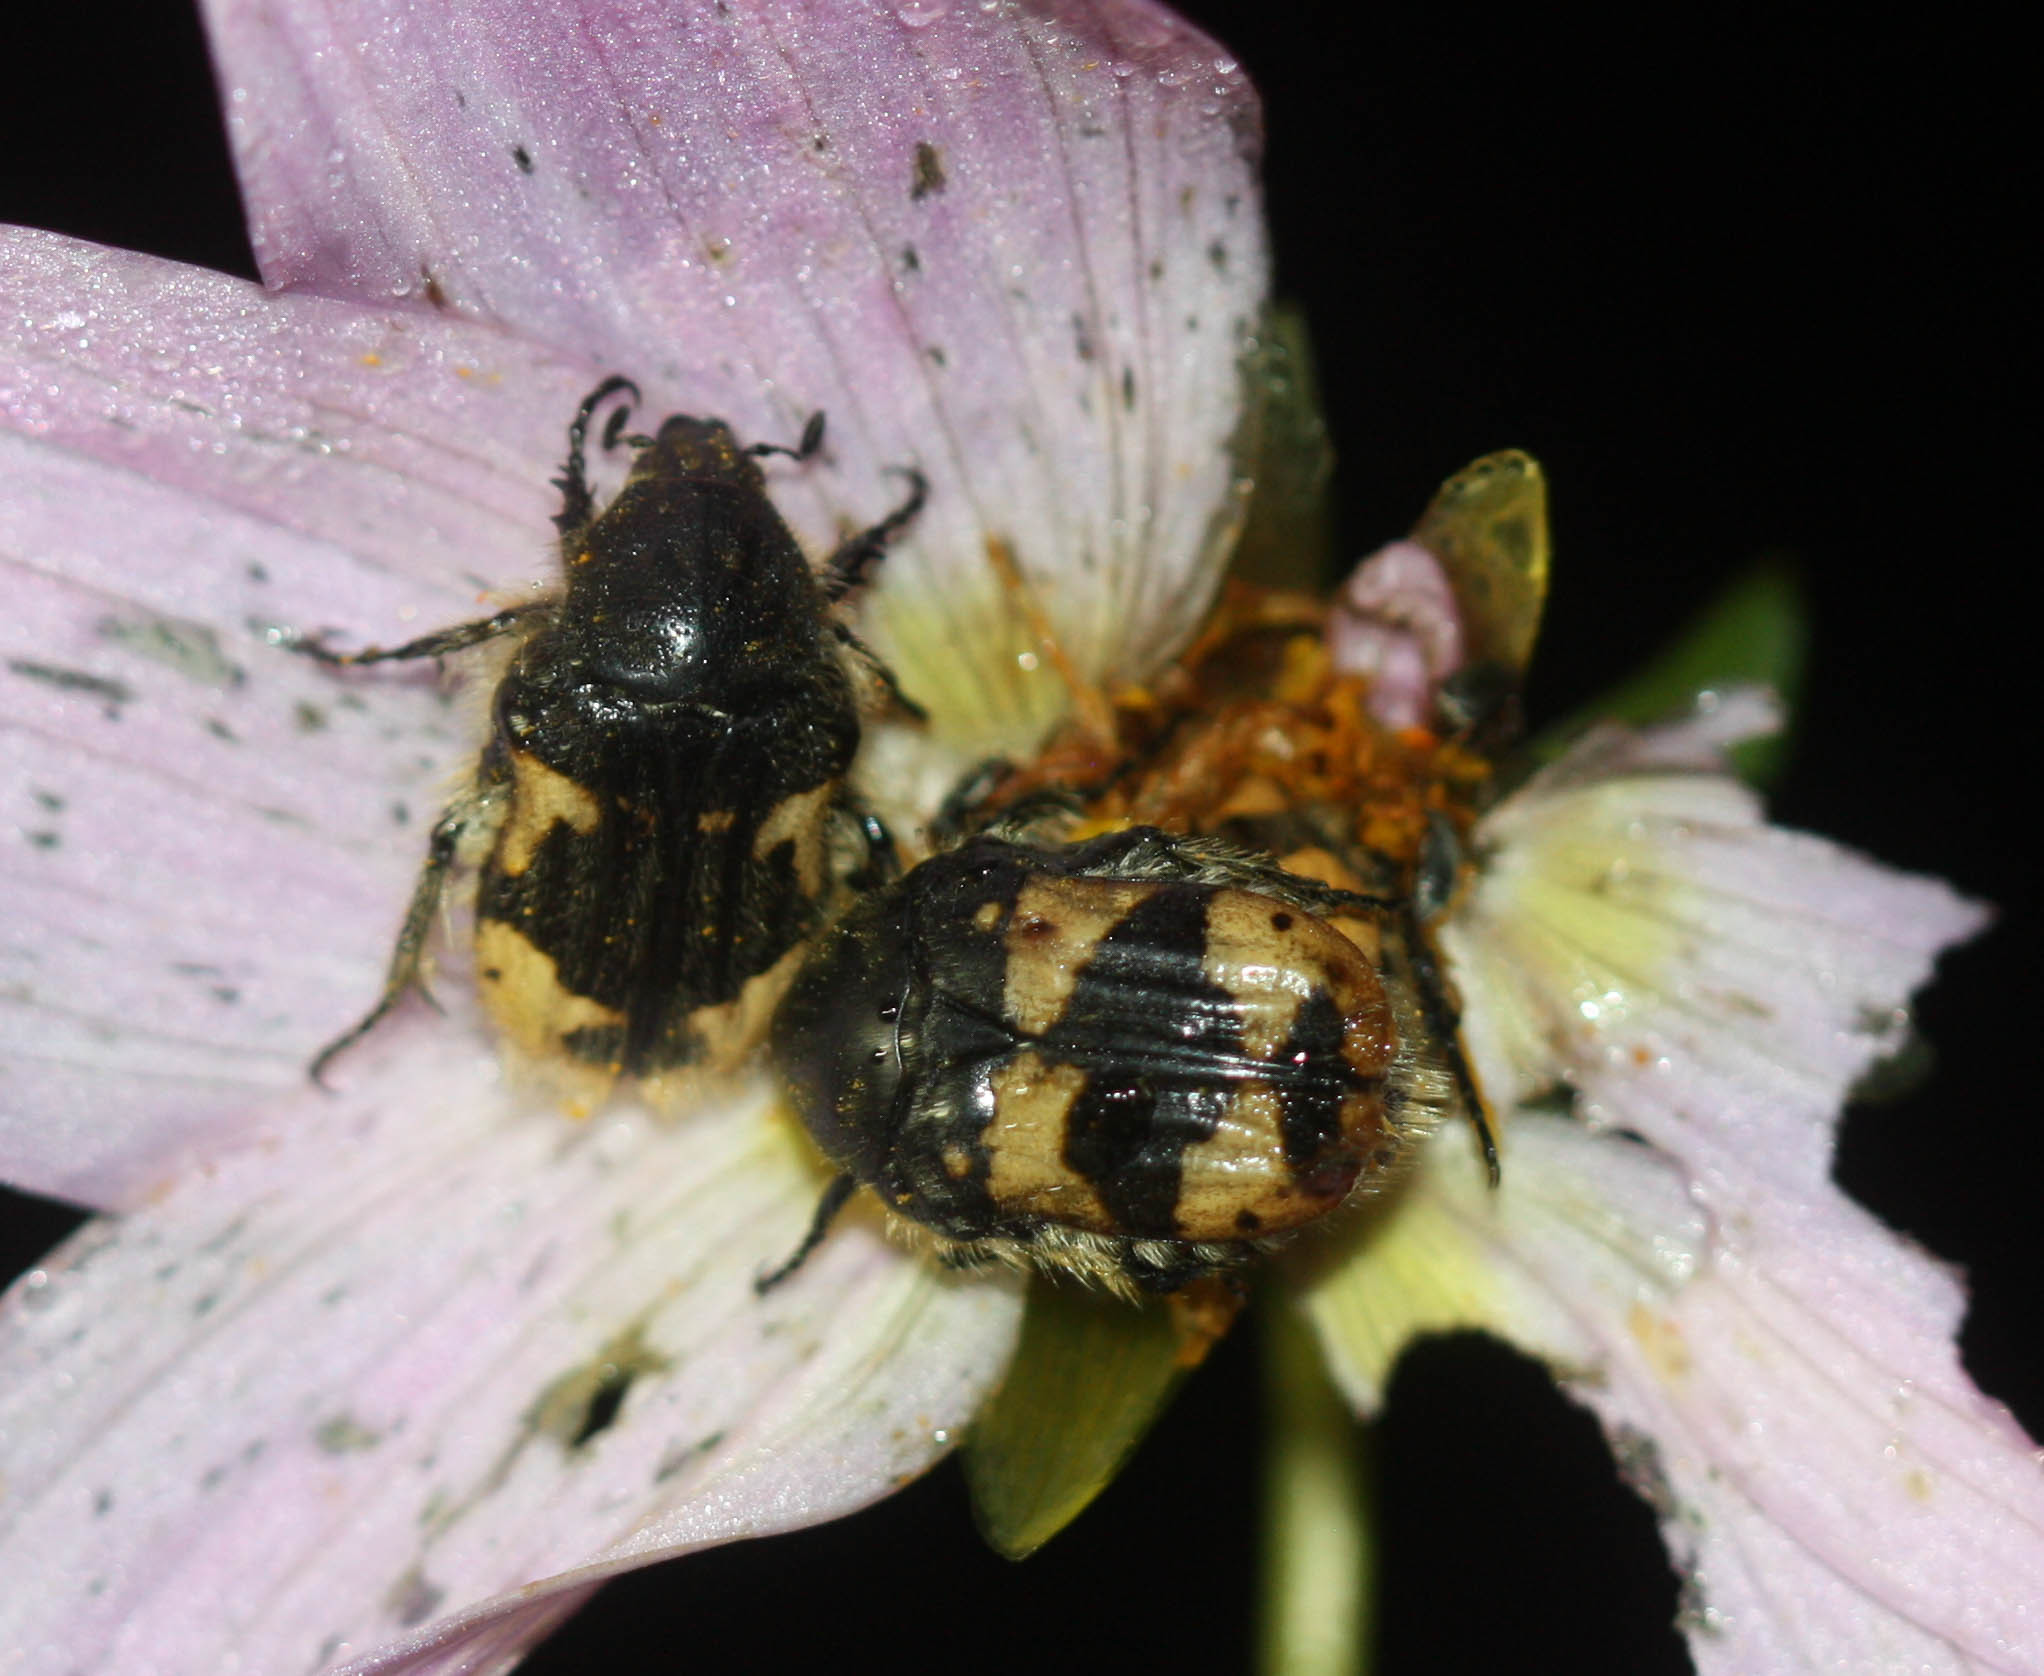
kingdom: Animalia
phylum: Arthropoda
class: Insecta
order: Coleoptera
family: Scarabaeidae
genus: Euphoria
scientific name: Euphoria basalis
